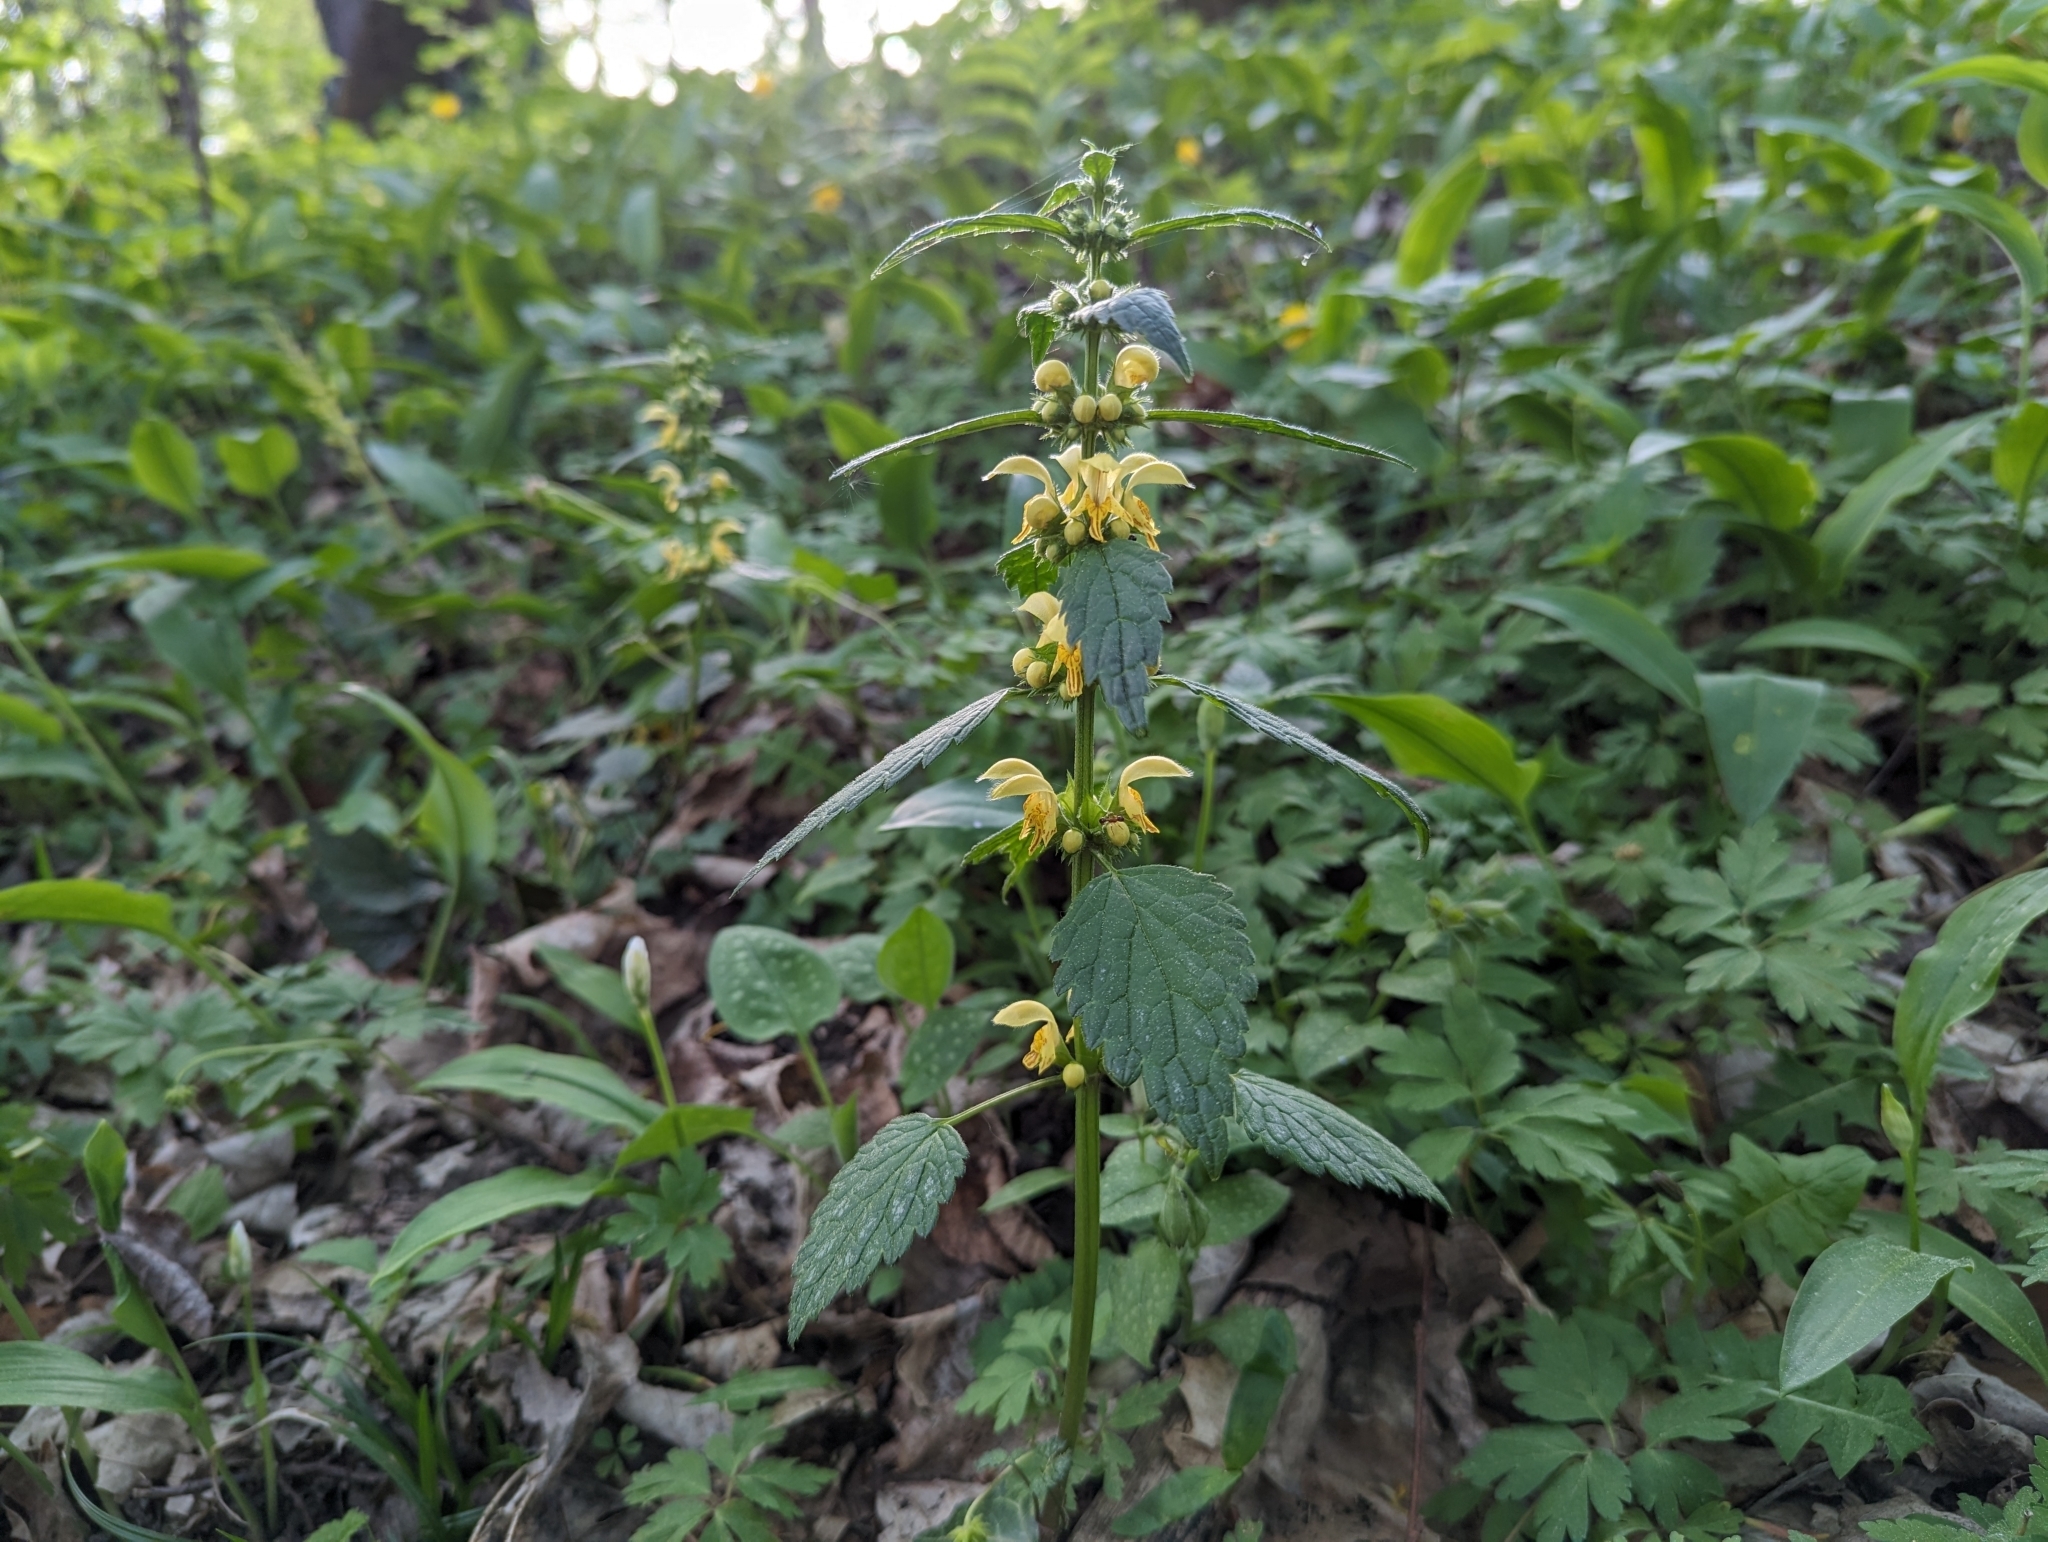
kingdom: Plantae
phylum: Tracheophyta
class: Magnoliopsida
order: Lamiales
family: Lamiaceae
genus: Lamium
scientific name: Lamium galeobdolon
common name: Yellow archangel
